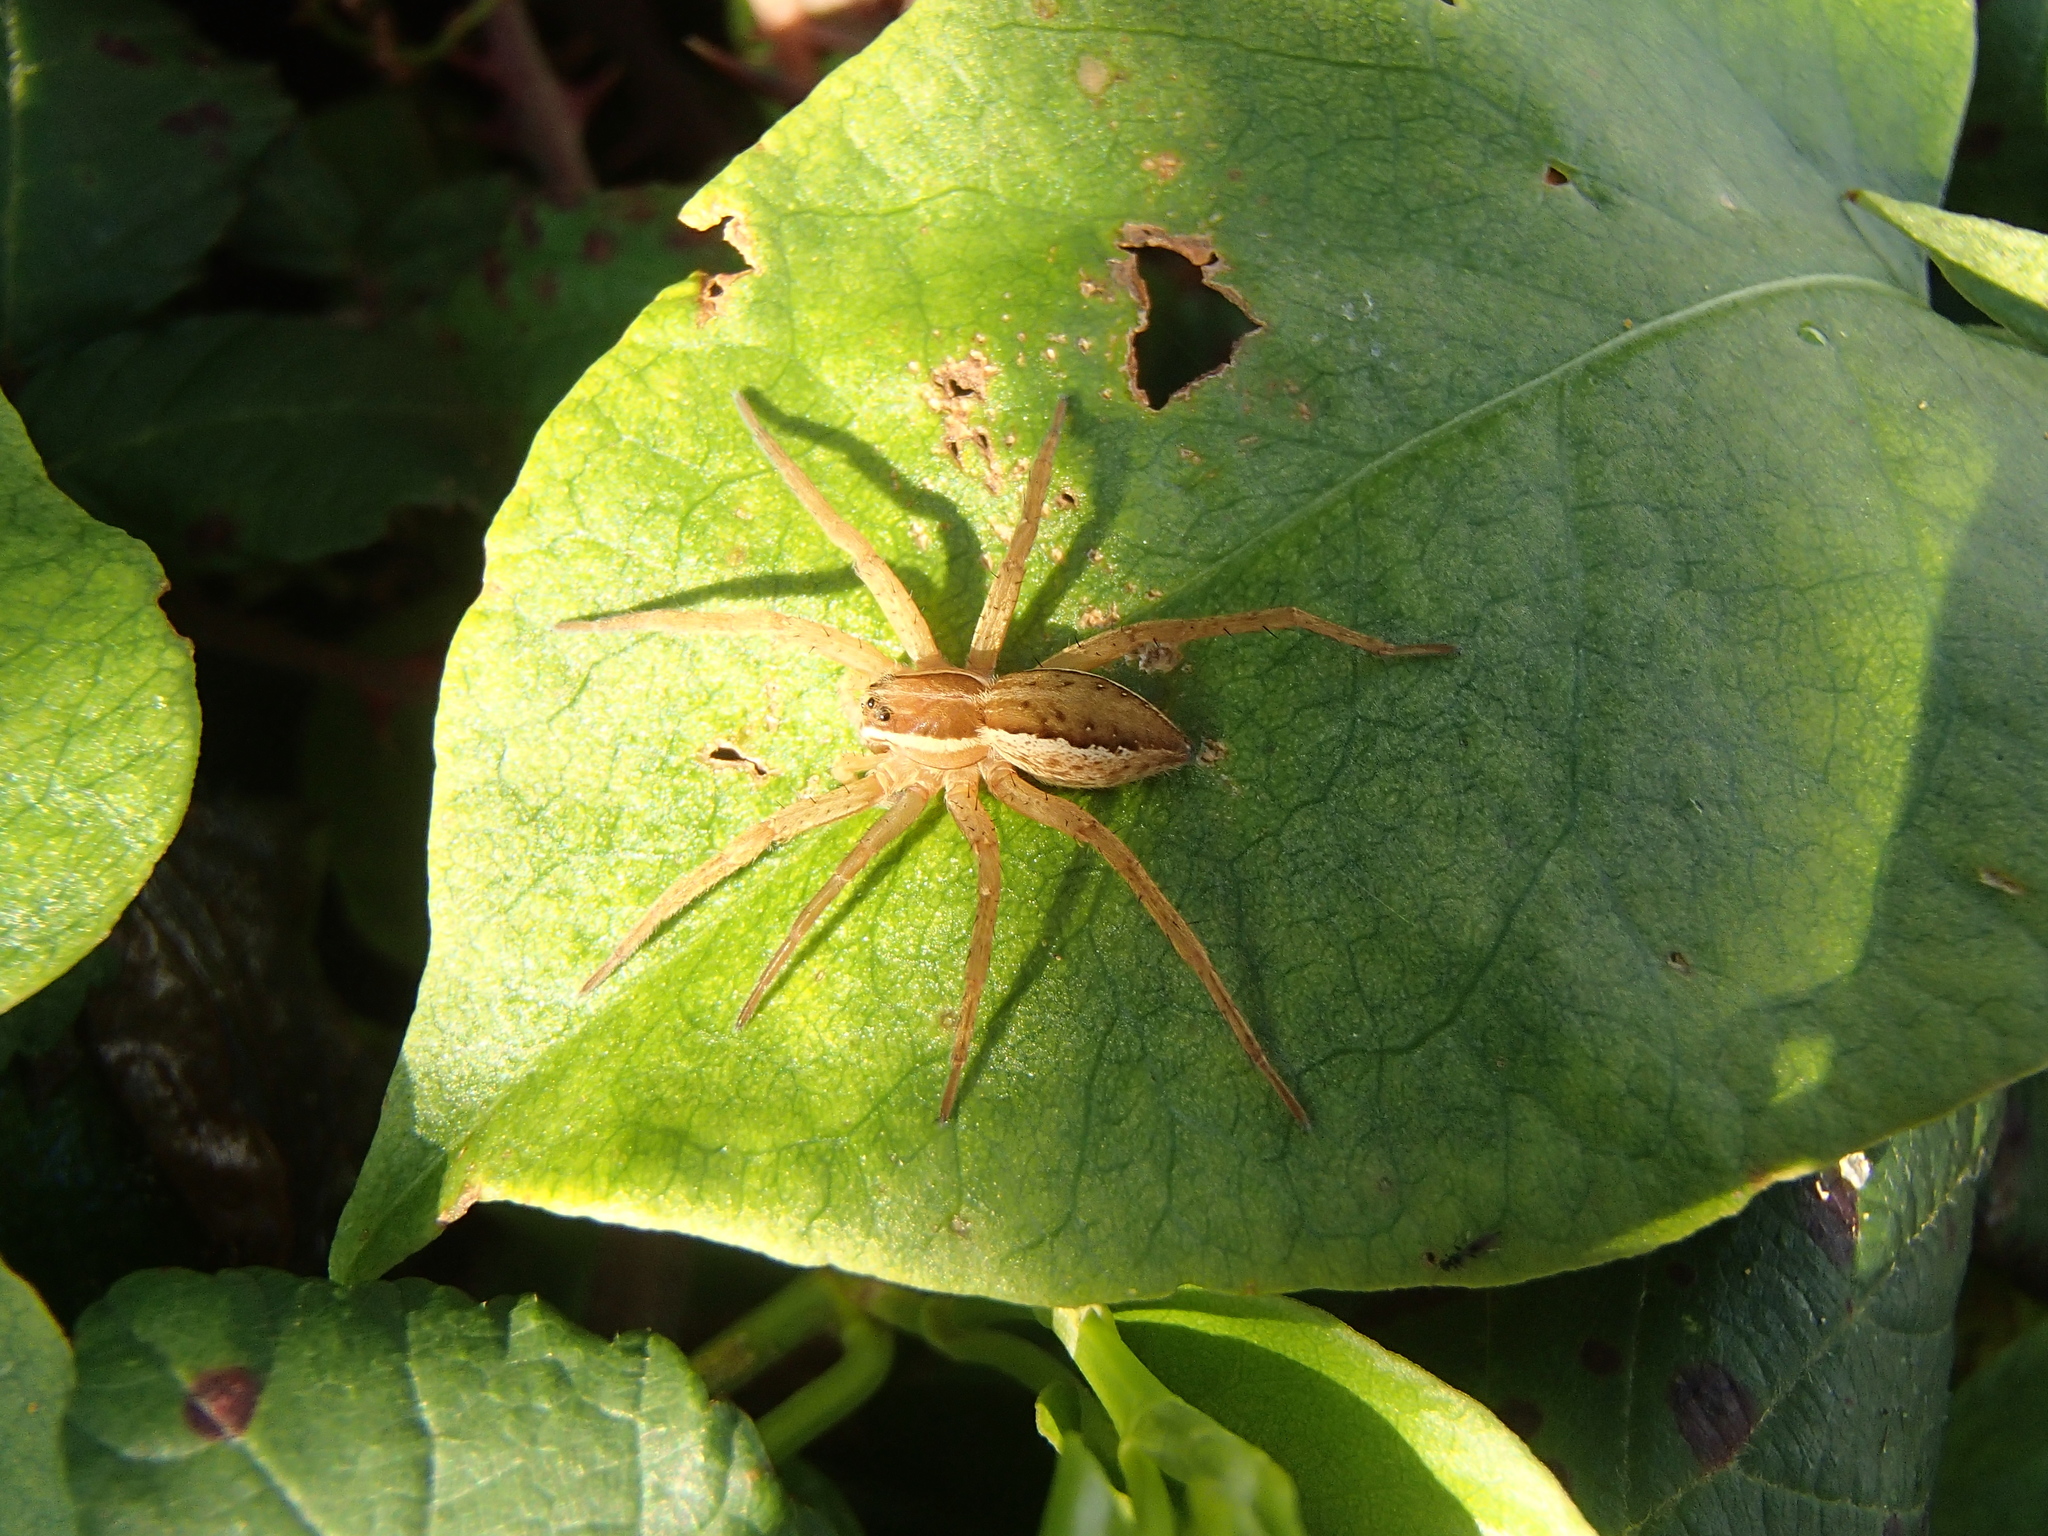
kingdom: Animalia
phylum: Arthropoda
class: Arachnida
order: Araneae
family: Pisauridae
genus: Dolomedes
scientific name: Dolomedes minor
